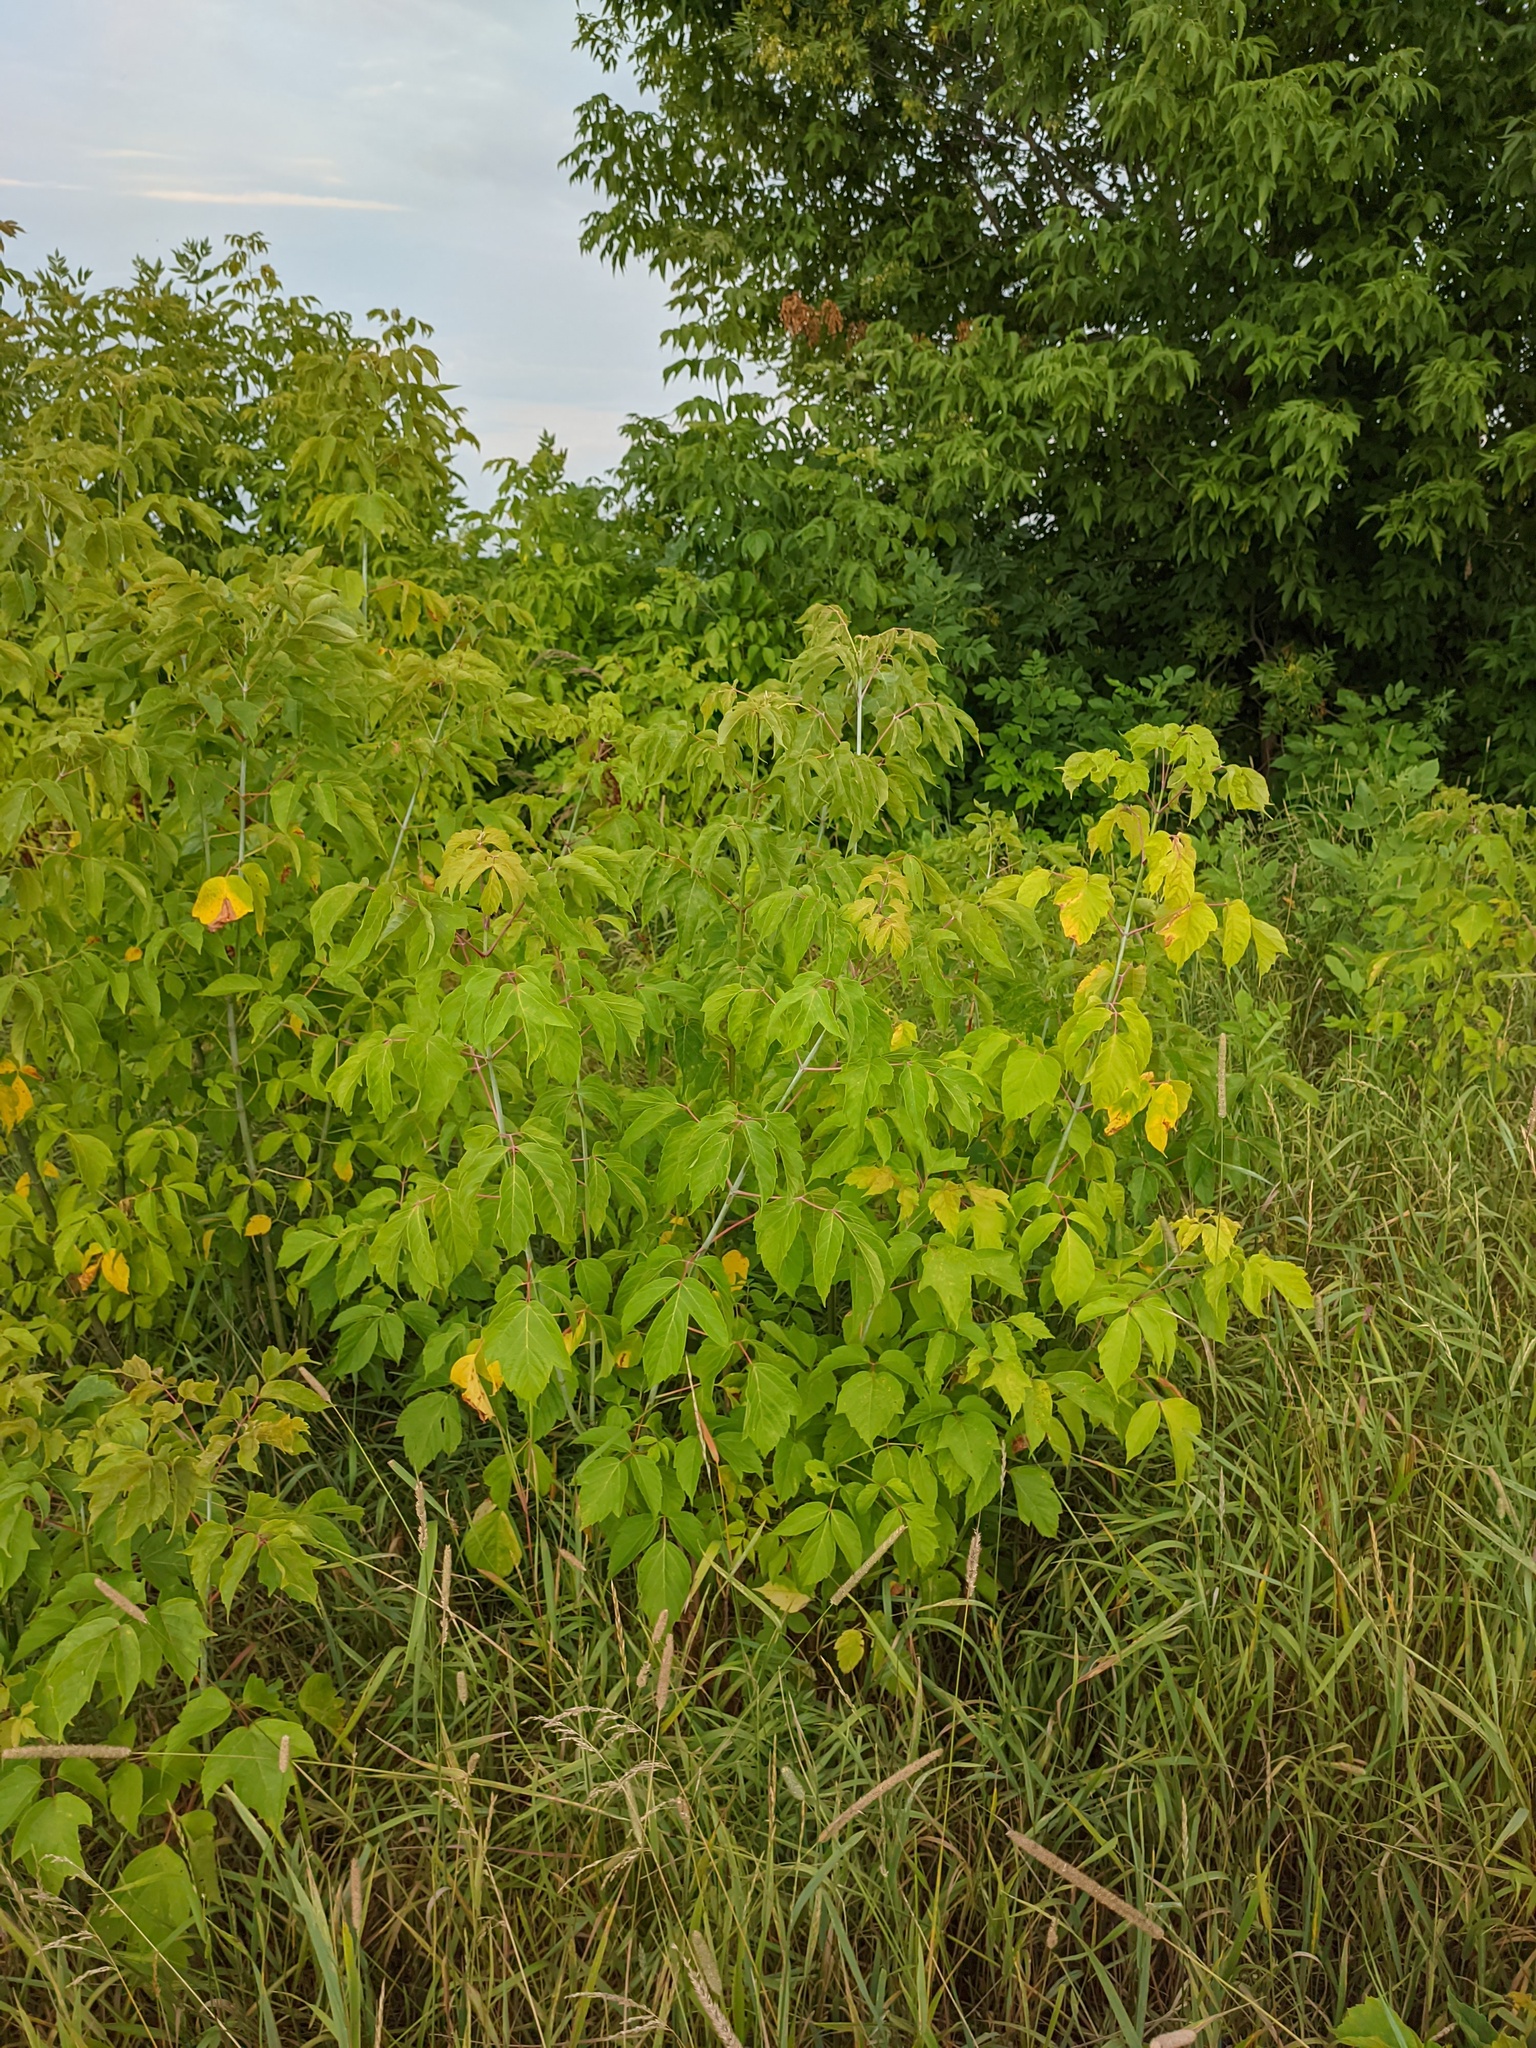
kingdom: Plantae
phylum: Tracheophyta
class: Magnoliopsida
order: Sapindales
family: Sapindaceae
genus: Acer
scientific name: Acer negundo
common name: Ashleaf maple
